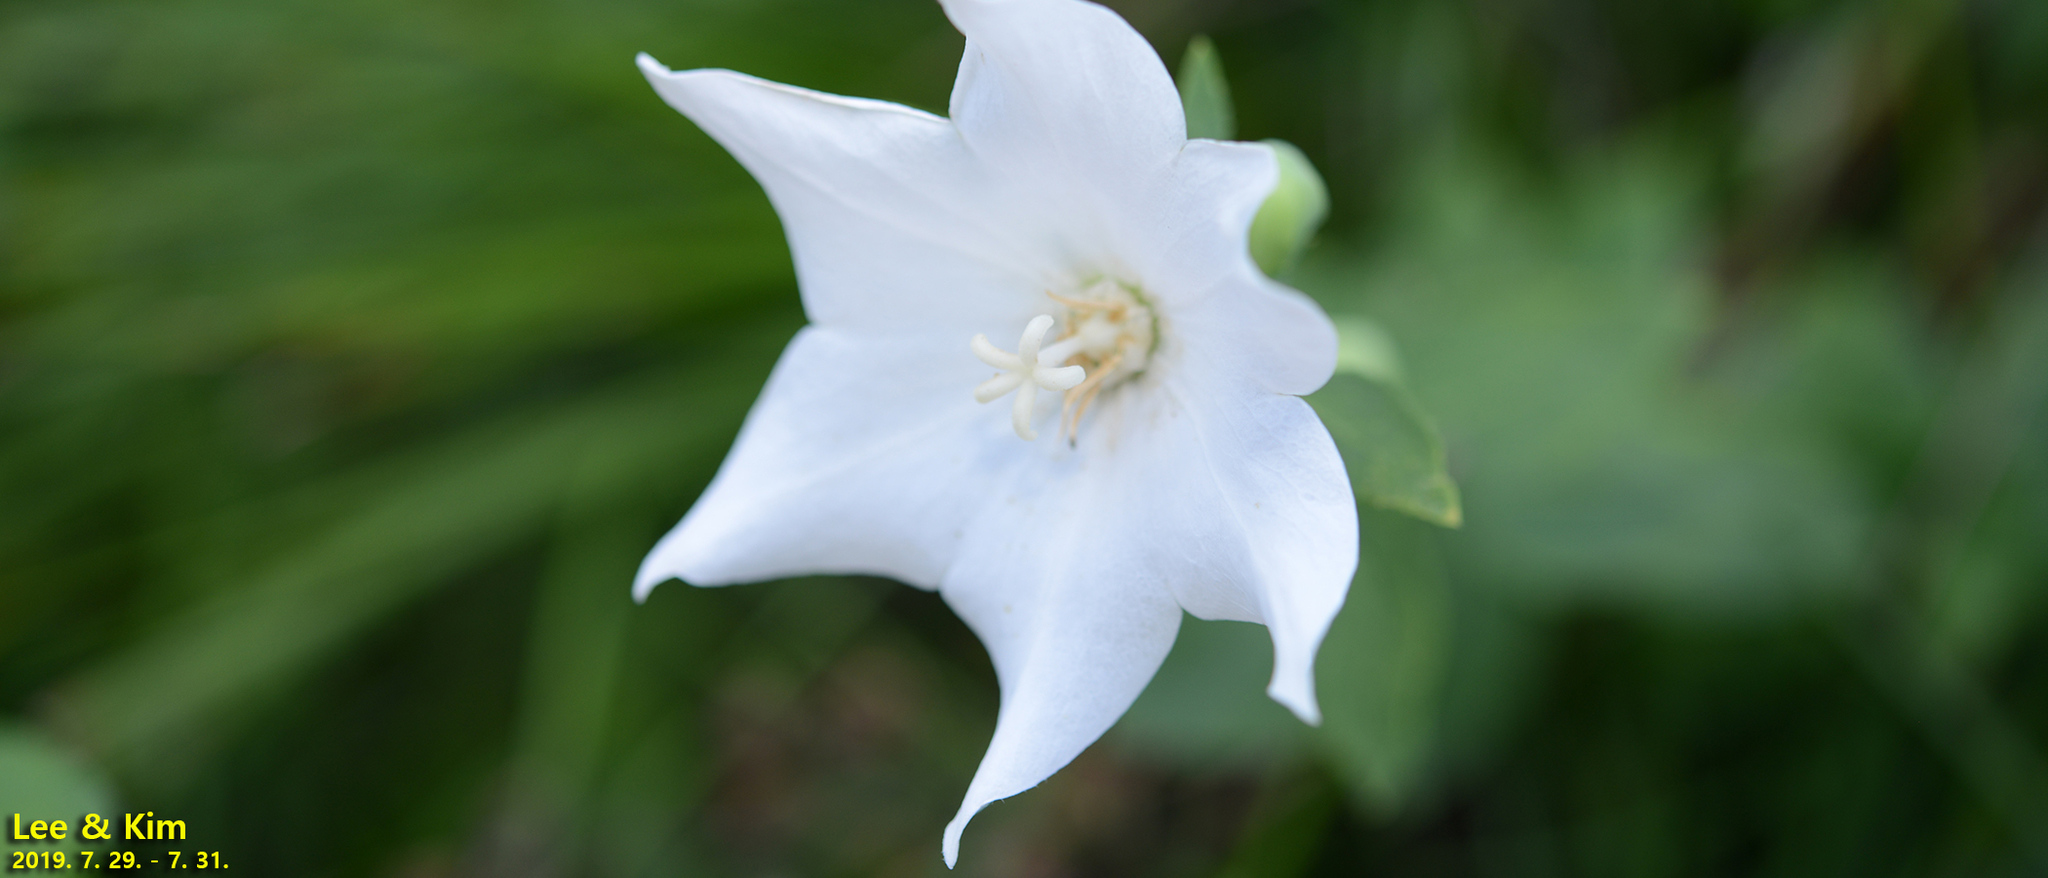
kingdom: Plantae
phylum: Tracheophyta
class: Magnoliopsida
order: Asterales
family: Campanulaceae
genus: Platycodon
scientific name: Platycodon grandiflorus
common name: Balloon-flower
